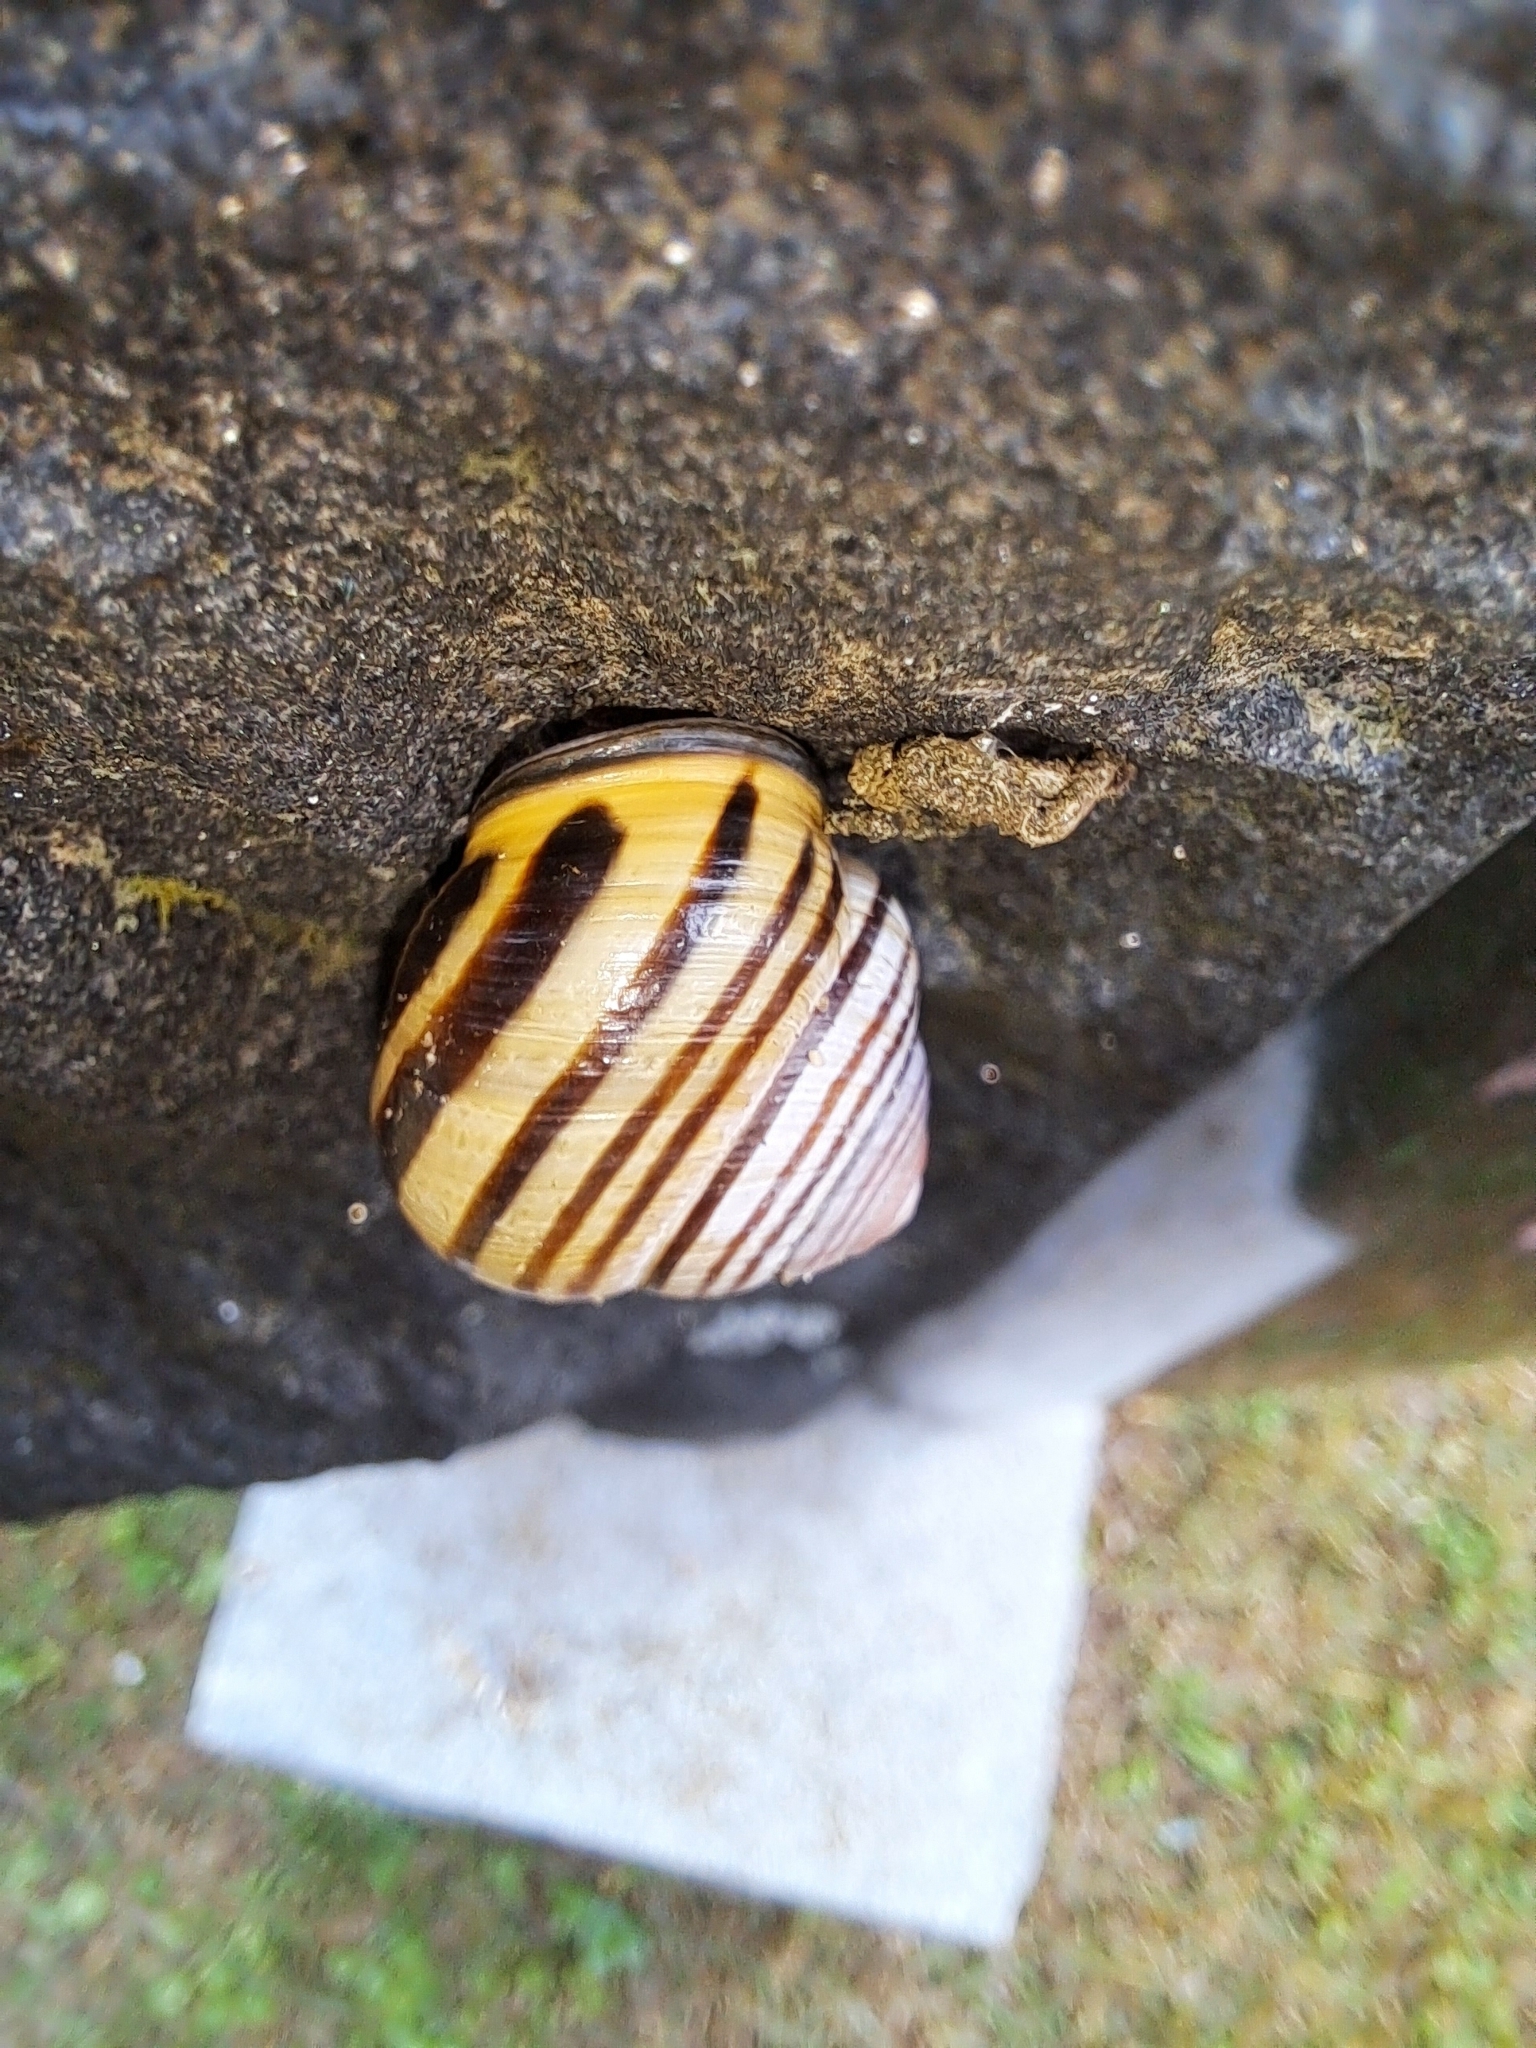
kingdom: Animalia
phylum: Mollusca
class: Gastropoda
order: Stylommatophora
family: Helicidae
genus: Cepaea
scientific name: Cepaea nemoralis
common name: Grovesnail
